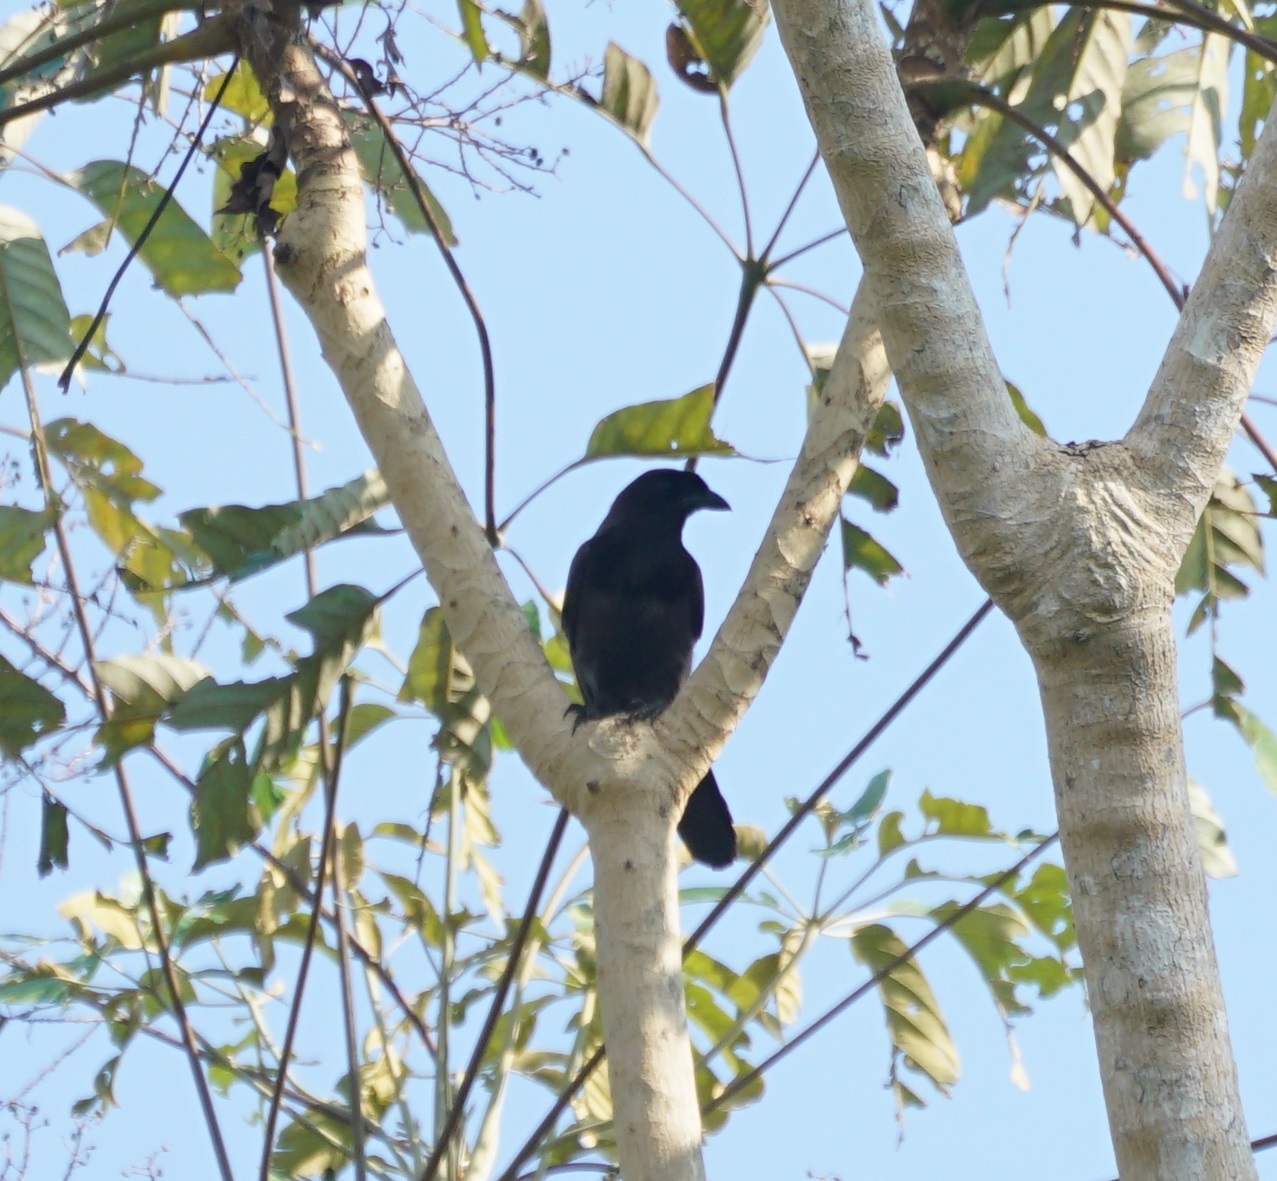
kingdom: Animalia
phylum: Chordata
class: Aves
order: Passeriformes
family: Corvidae
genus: Cyanocorax
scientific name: Cyanocorax cyanomelas
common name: Purplish jay
